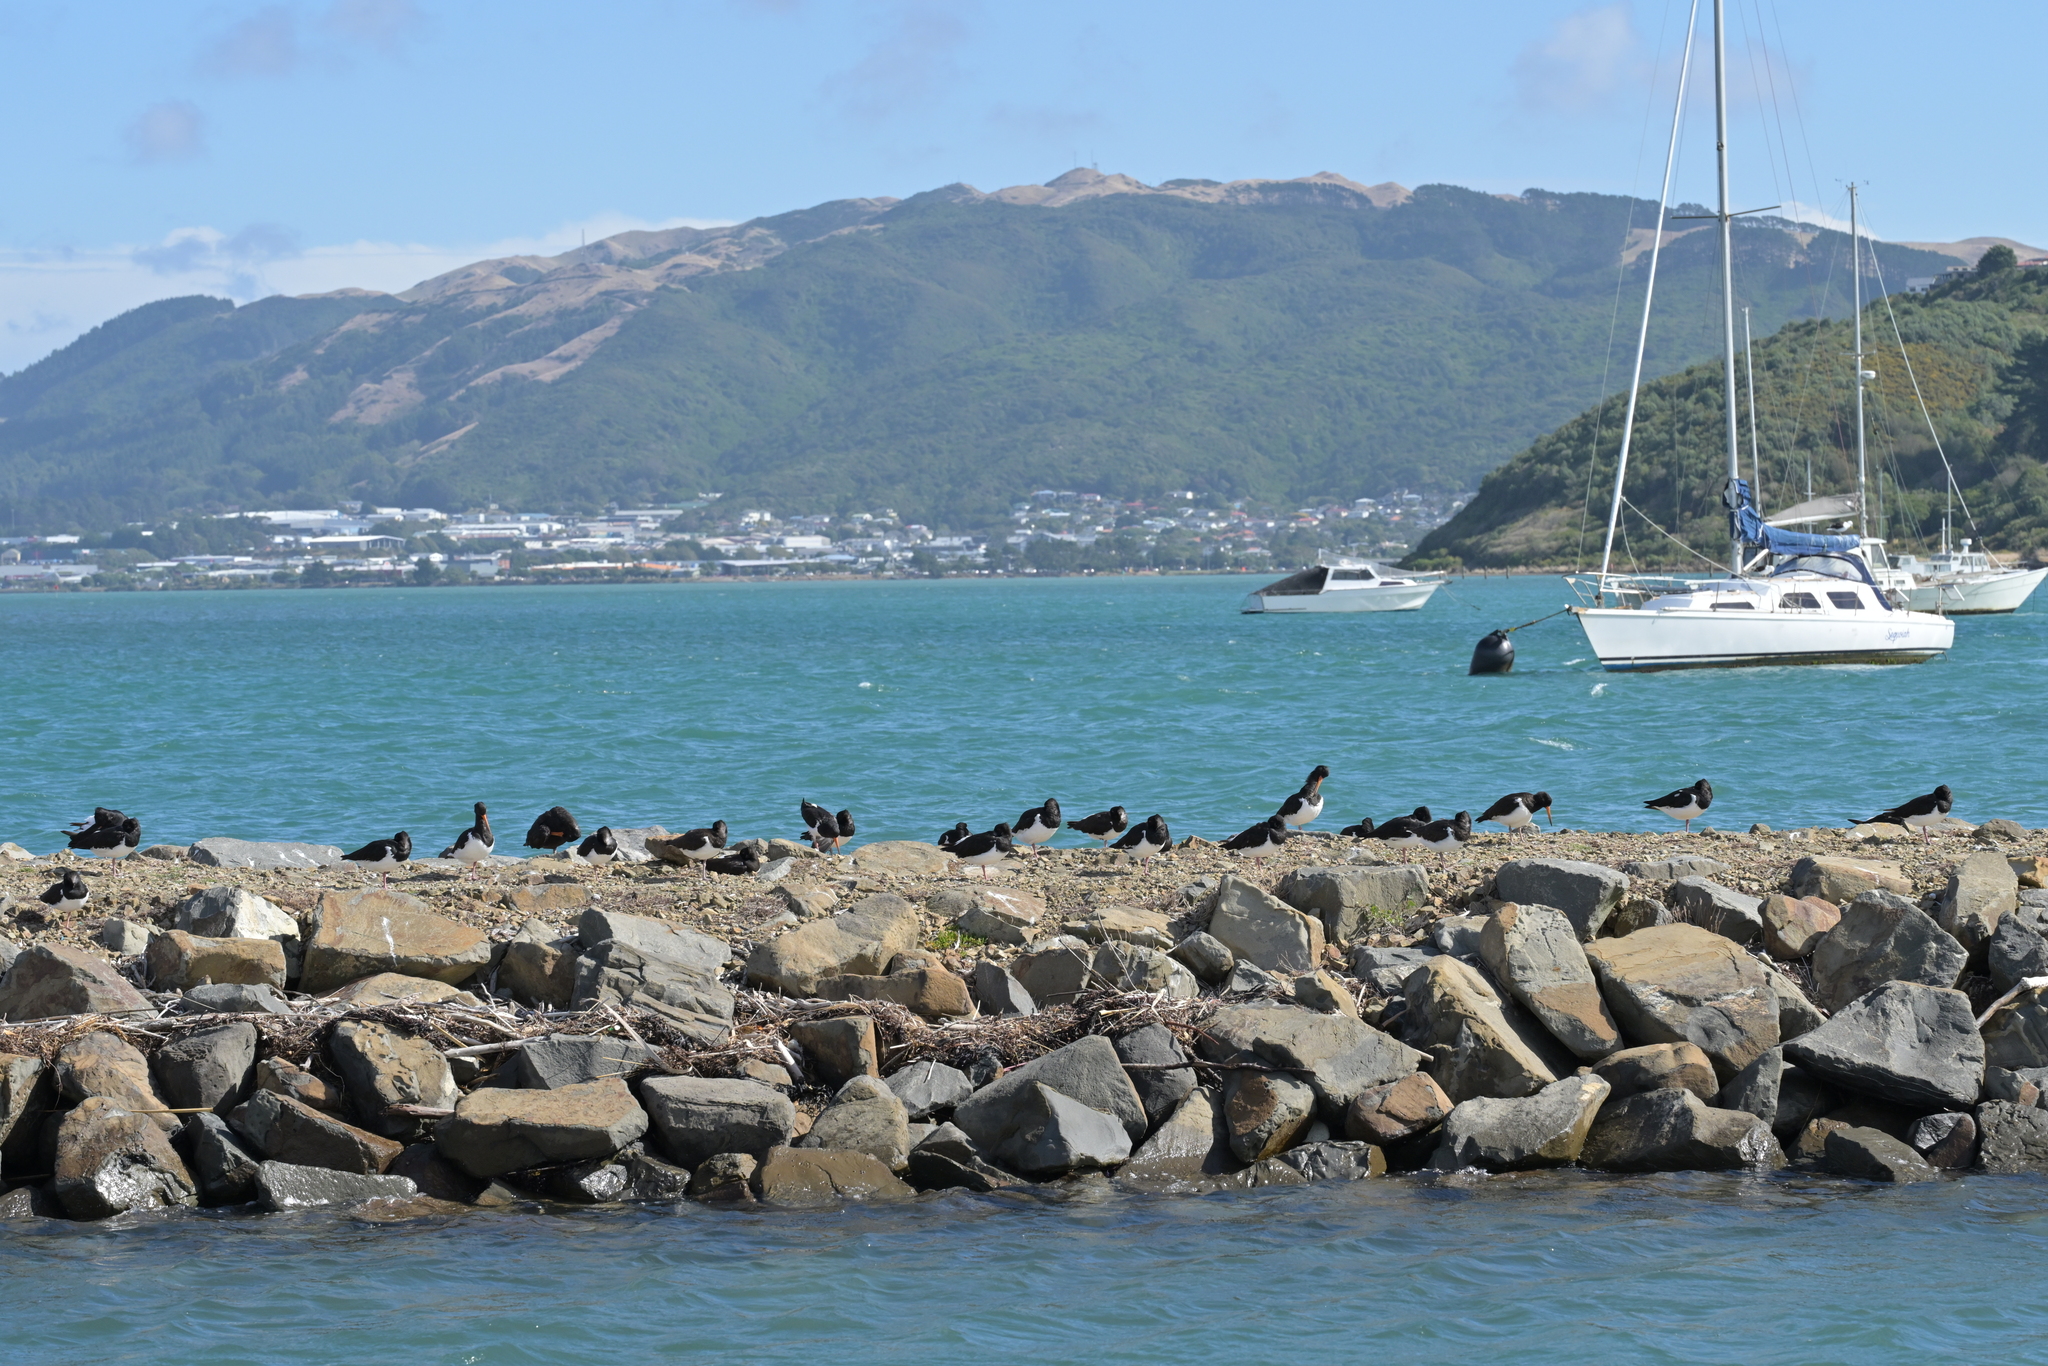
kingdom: Animalia
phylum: Chordata
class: Aves
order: Charadriiformes
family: Haematopodidae
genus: Haematopus
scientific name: Haematopus finschi
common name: South island oystercatcher
